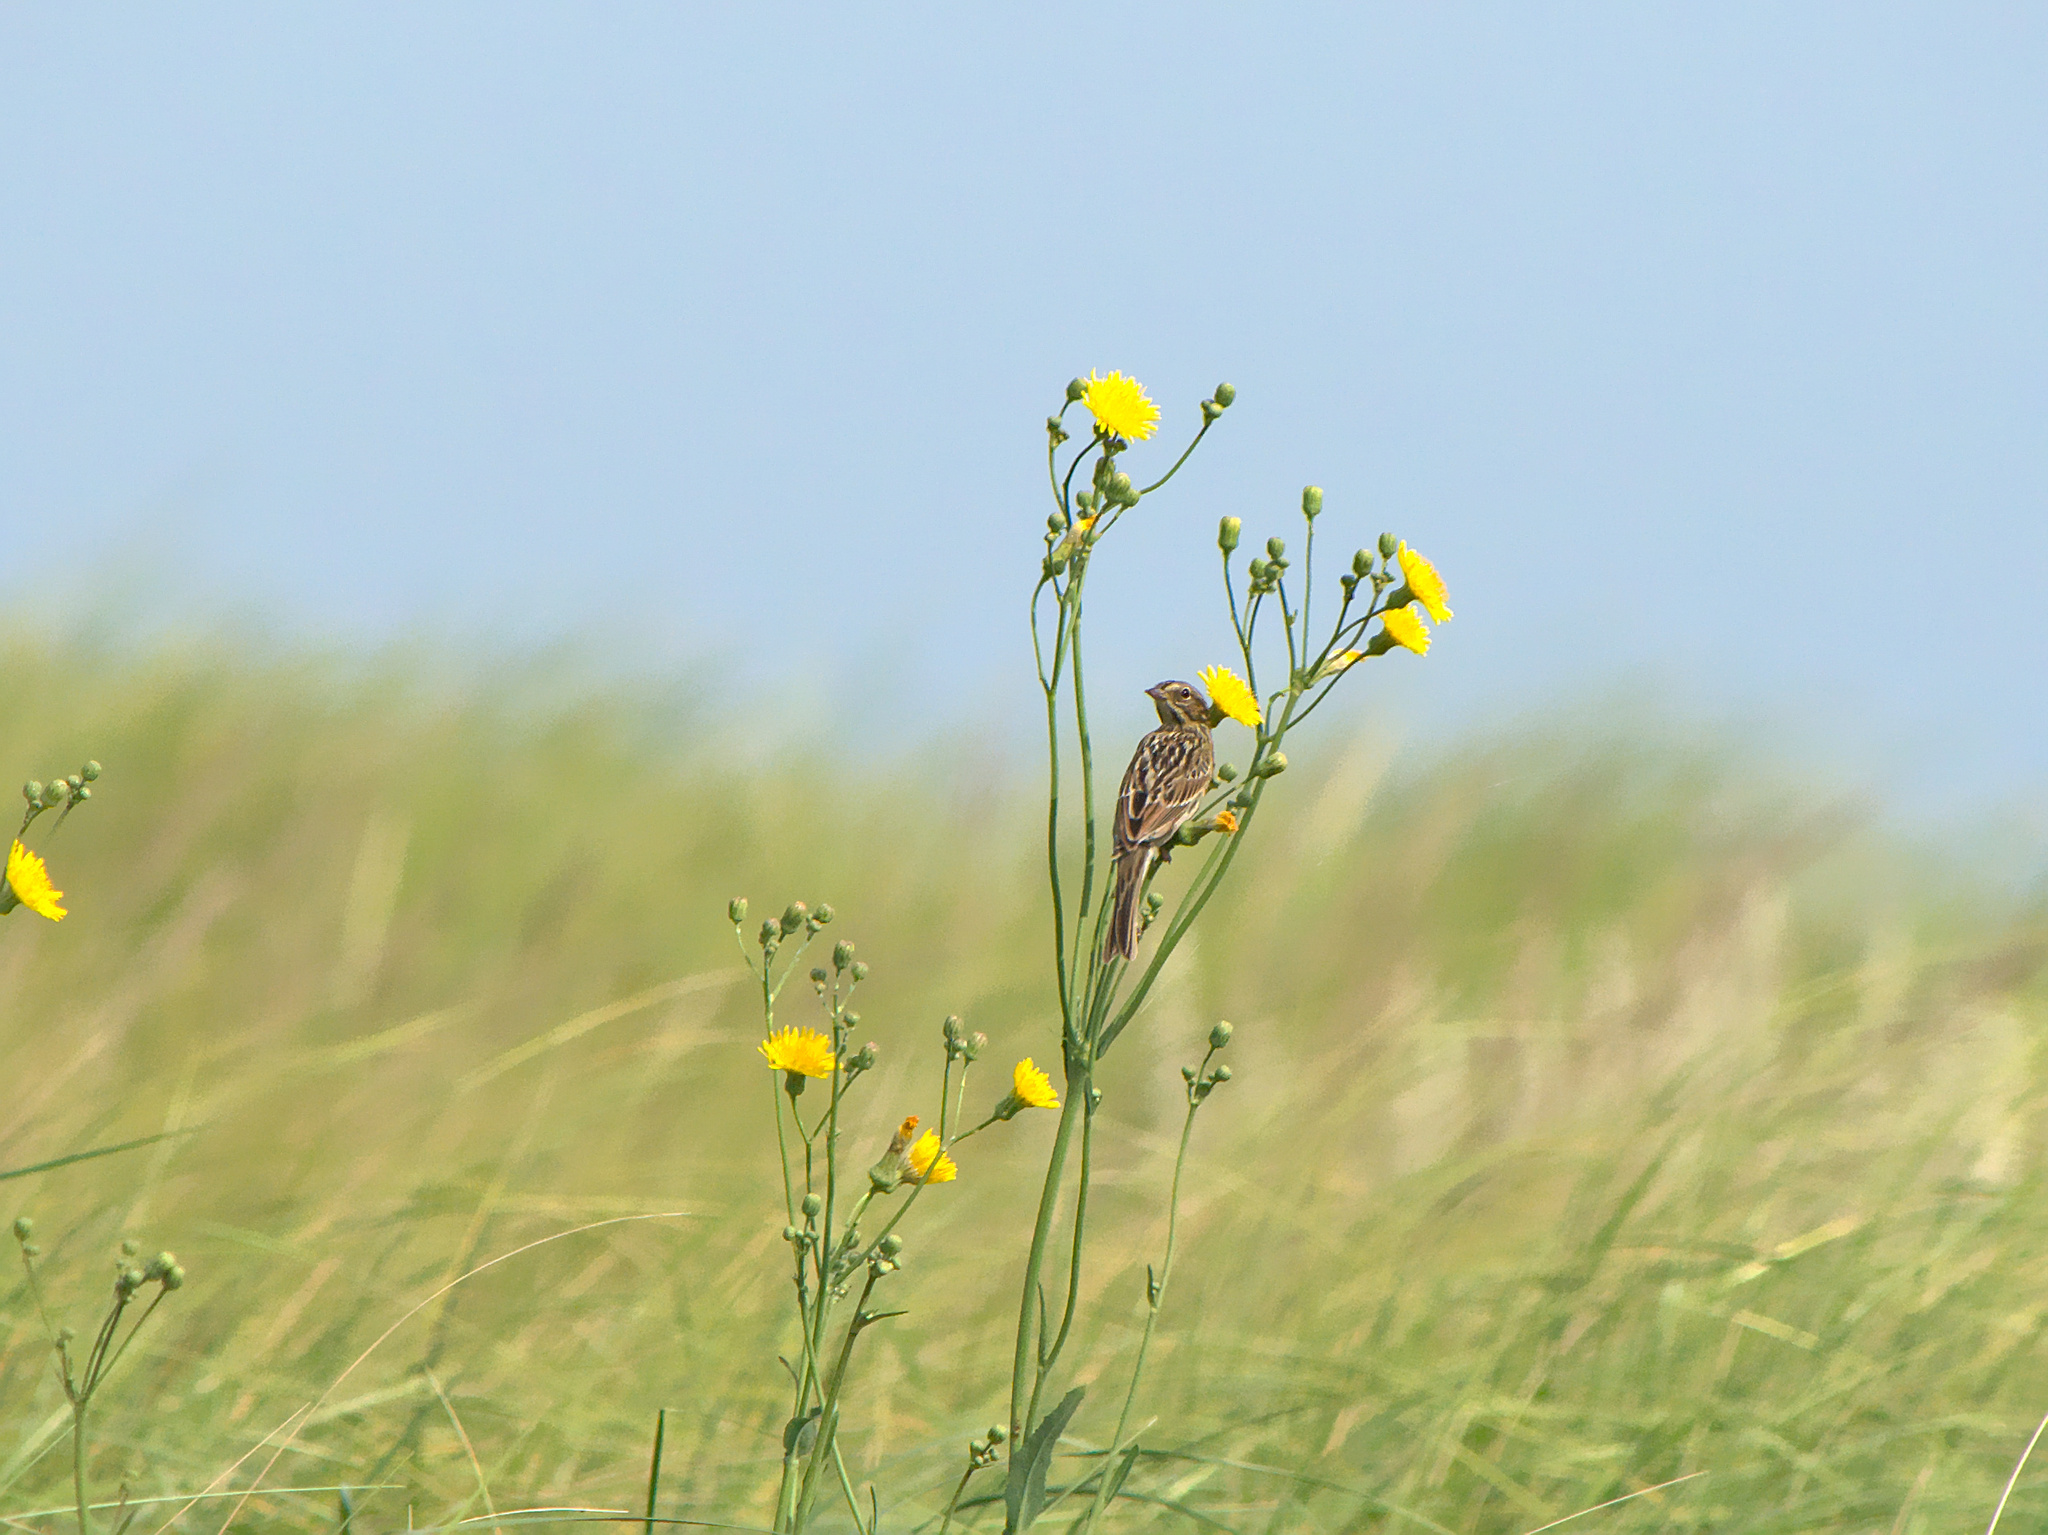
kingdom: Animalia
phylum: Chordata
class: Aves
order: Passeriformes
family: Passerellidae
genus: Passerculus
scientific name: Passerculus sandwichensis
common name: Savannah sparrow
